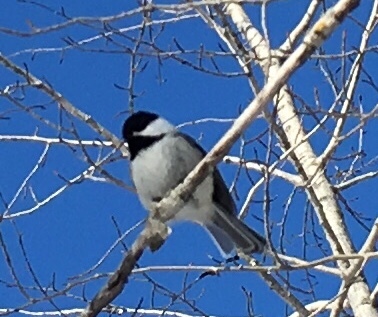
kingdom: Animalia
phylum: Chordata
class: Aves
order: Passeriformes
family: Paridae
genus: Poecile
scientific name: Poecile atricapillus
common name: Black-capped chickadee
